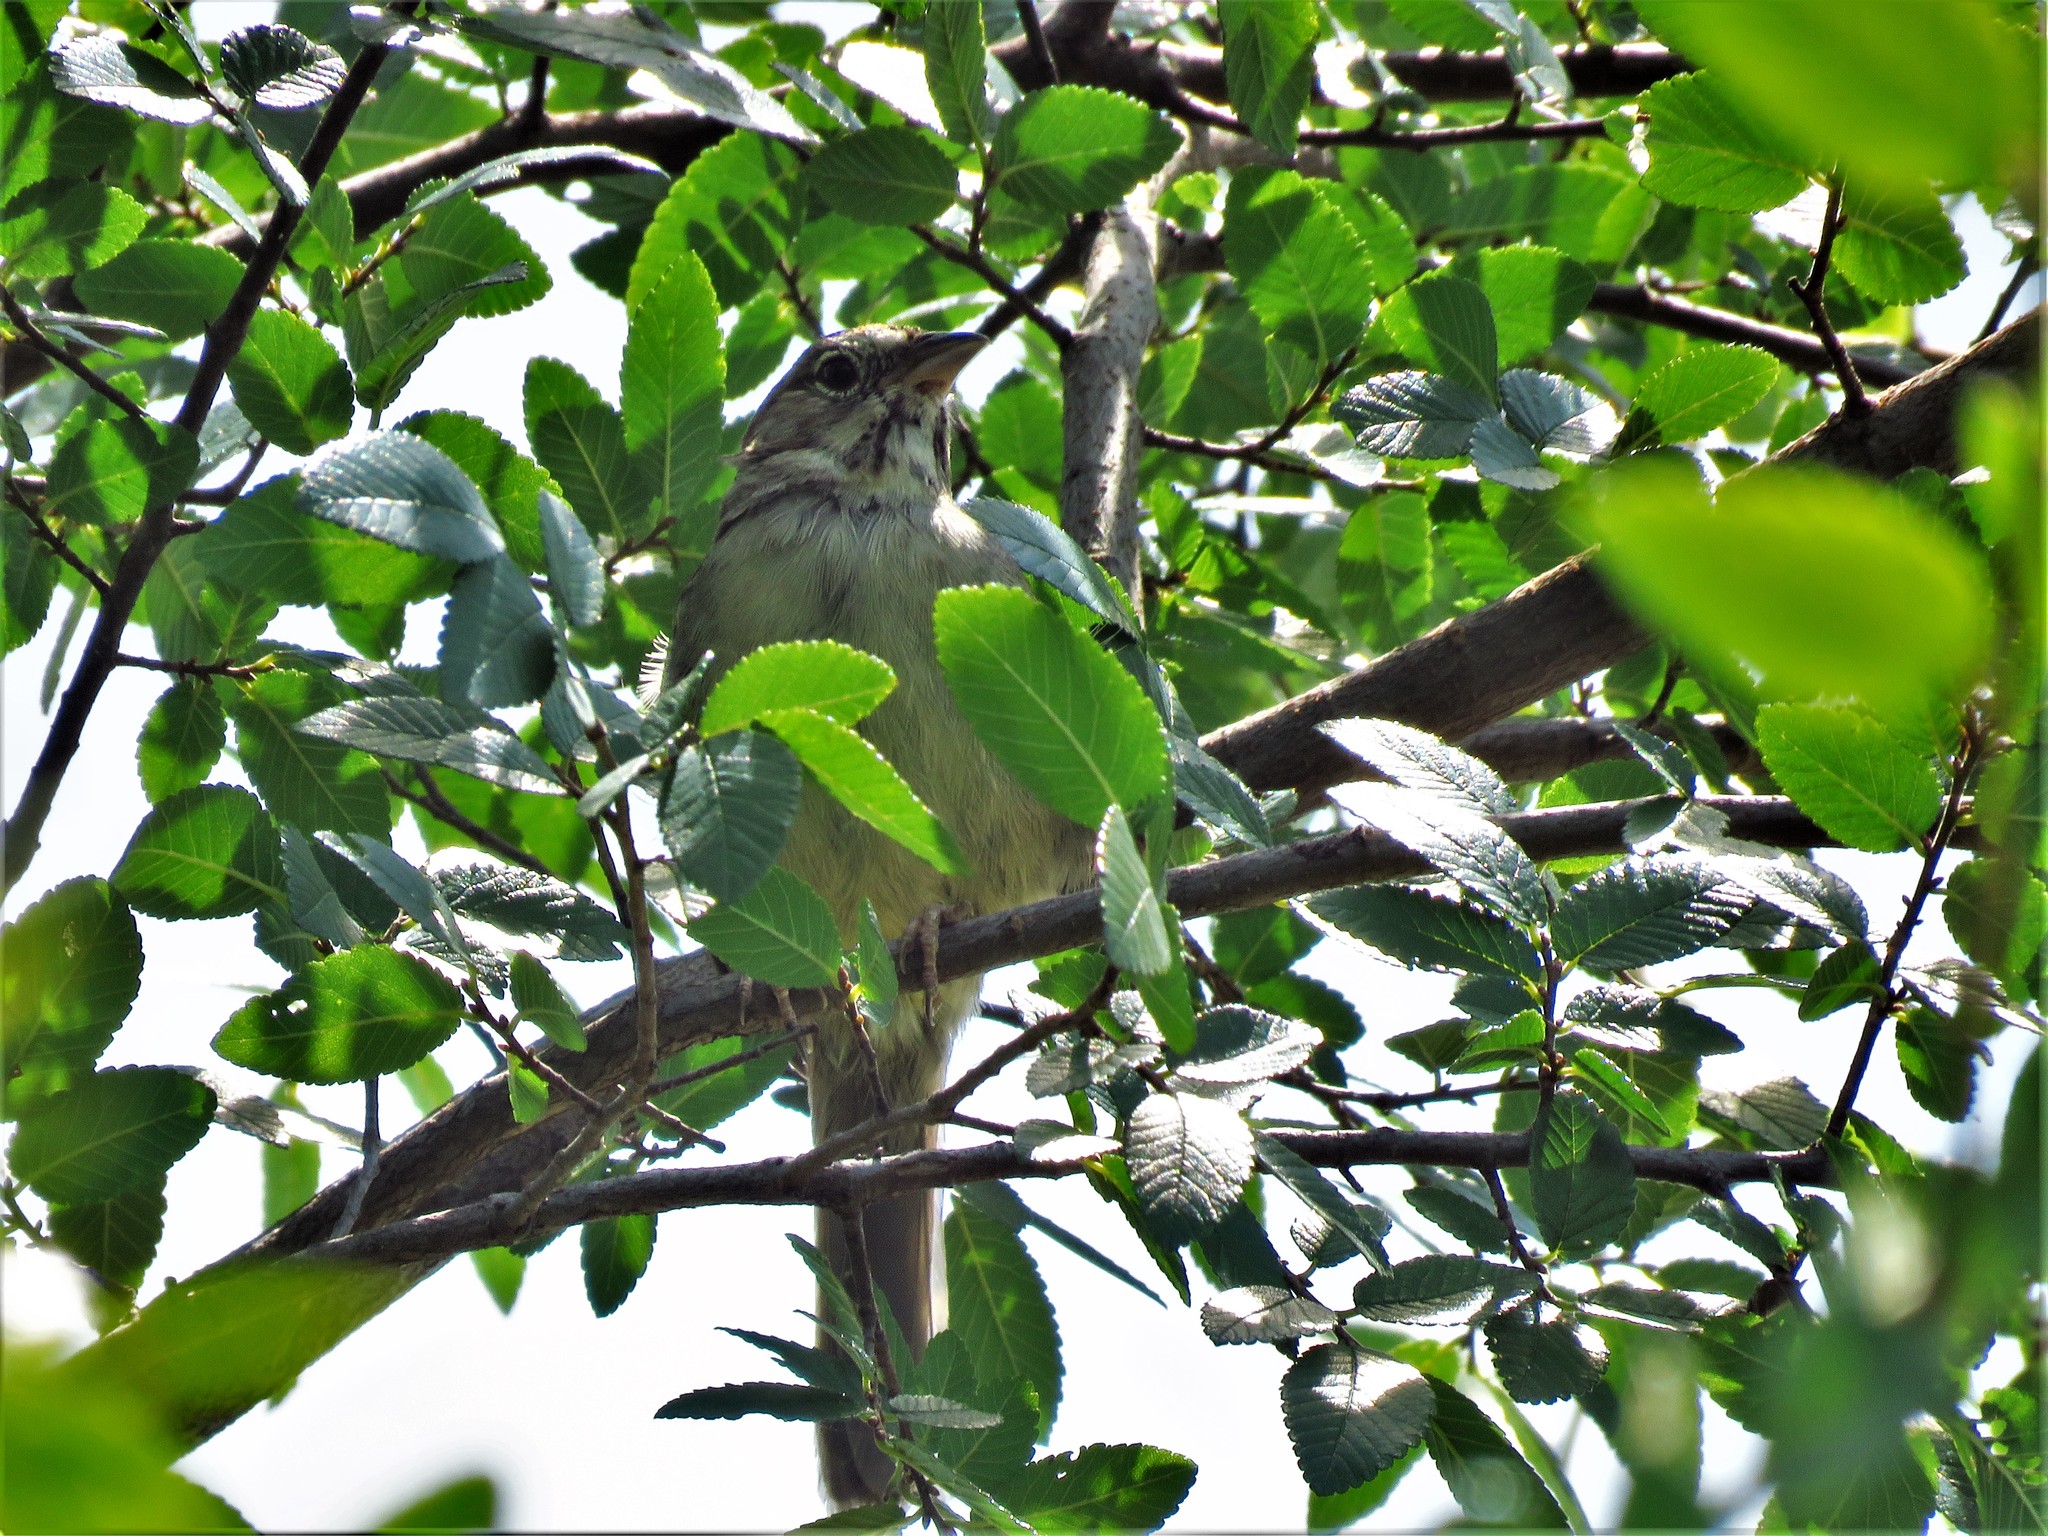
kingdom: Animalia
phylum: Chordata
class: Aves
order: Passeriformes
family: Passerellidae
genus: Aimophila
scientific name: Aimophila ruficeps
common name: Rufous-crowned sparrow
